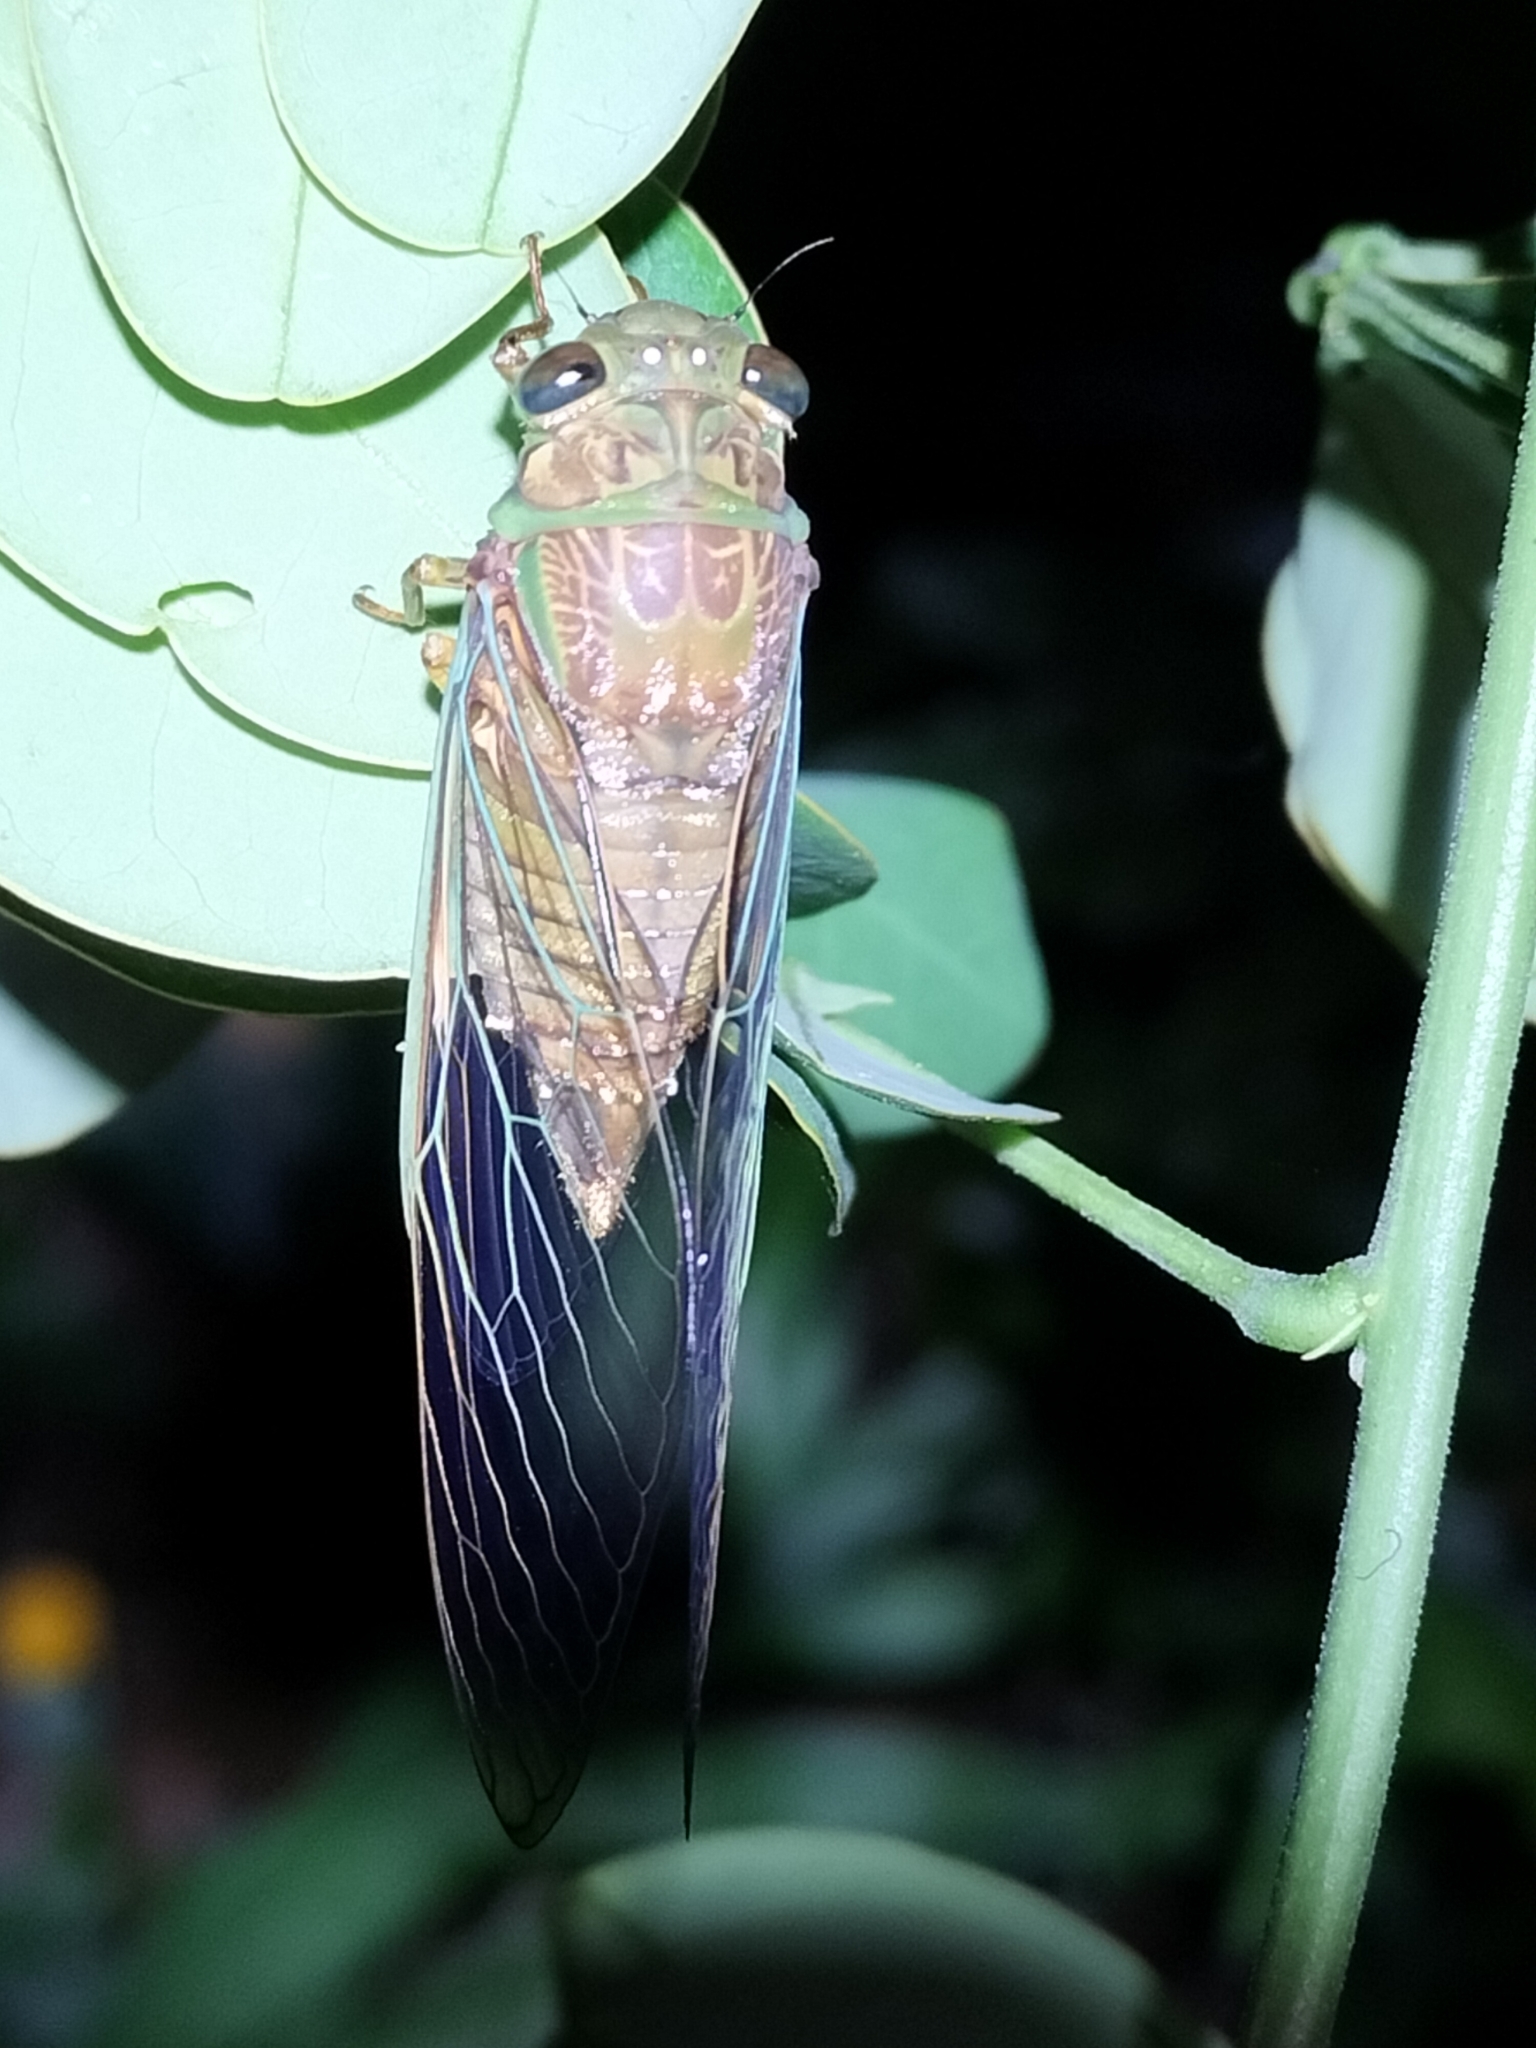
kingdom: Animalia
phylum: Arthropoda
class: Insecta
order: Hemiptera
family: Cicadidae
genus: Venustria
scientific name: Venustria superba
